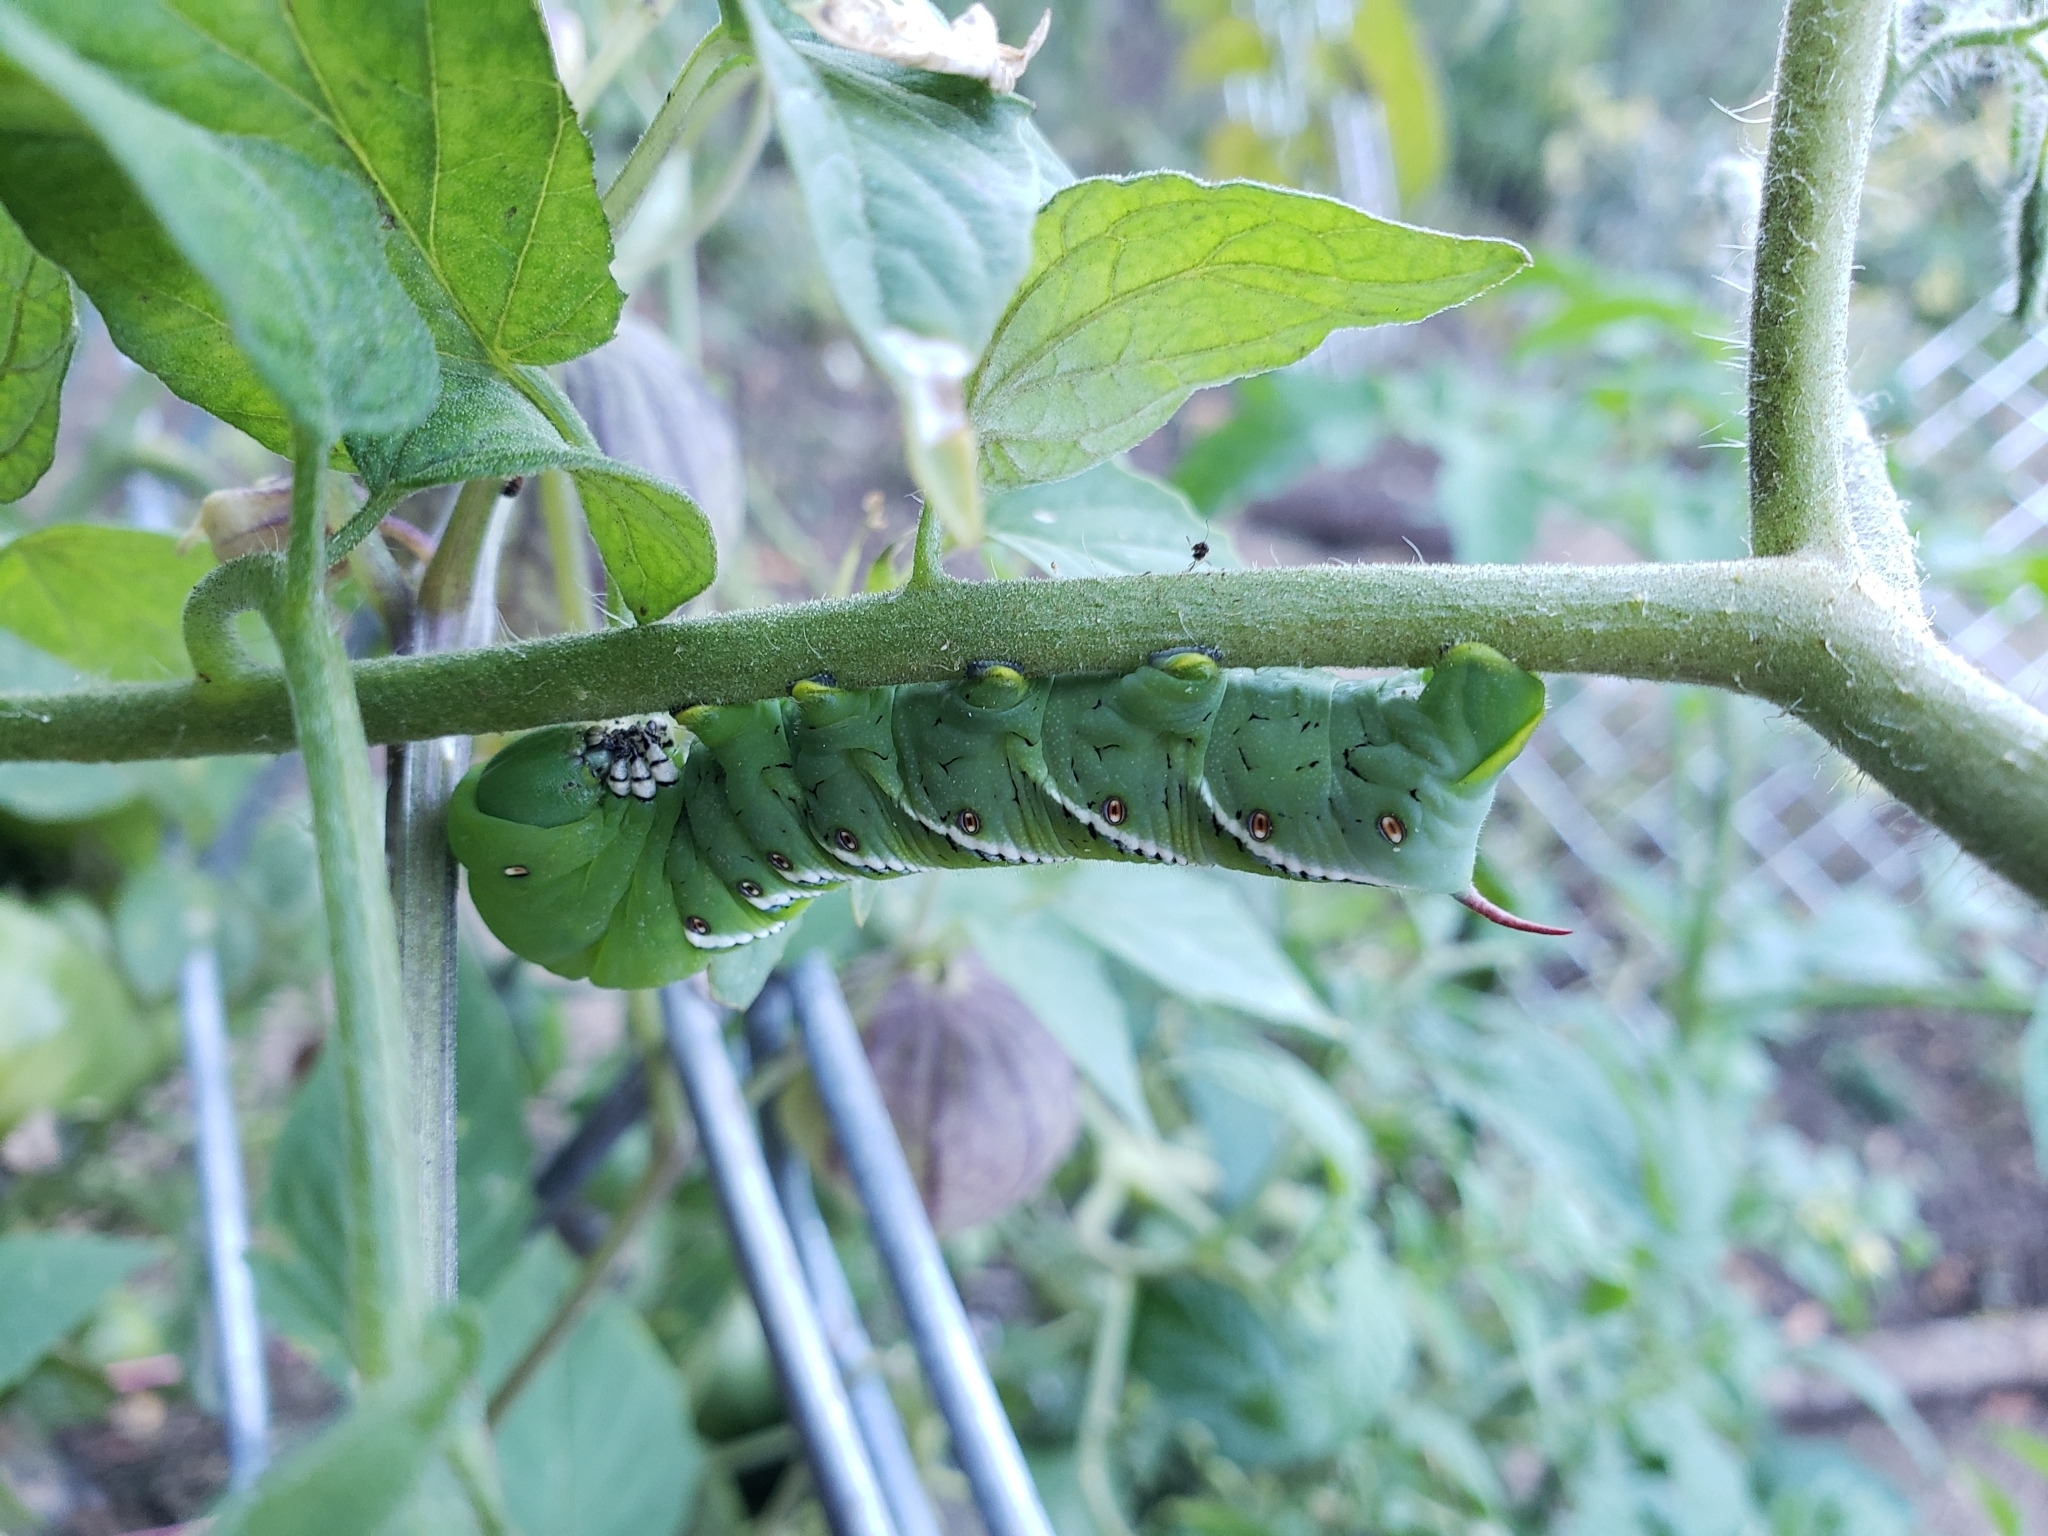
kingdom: Animalia
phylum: Arthropoda
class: Insecta
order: Lepidoptera
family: Sphingidae
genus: Manduca
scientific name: Manduca sexta
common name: Carolina sphinx
